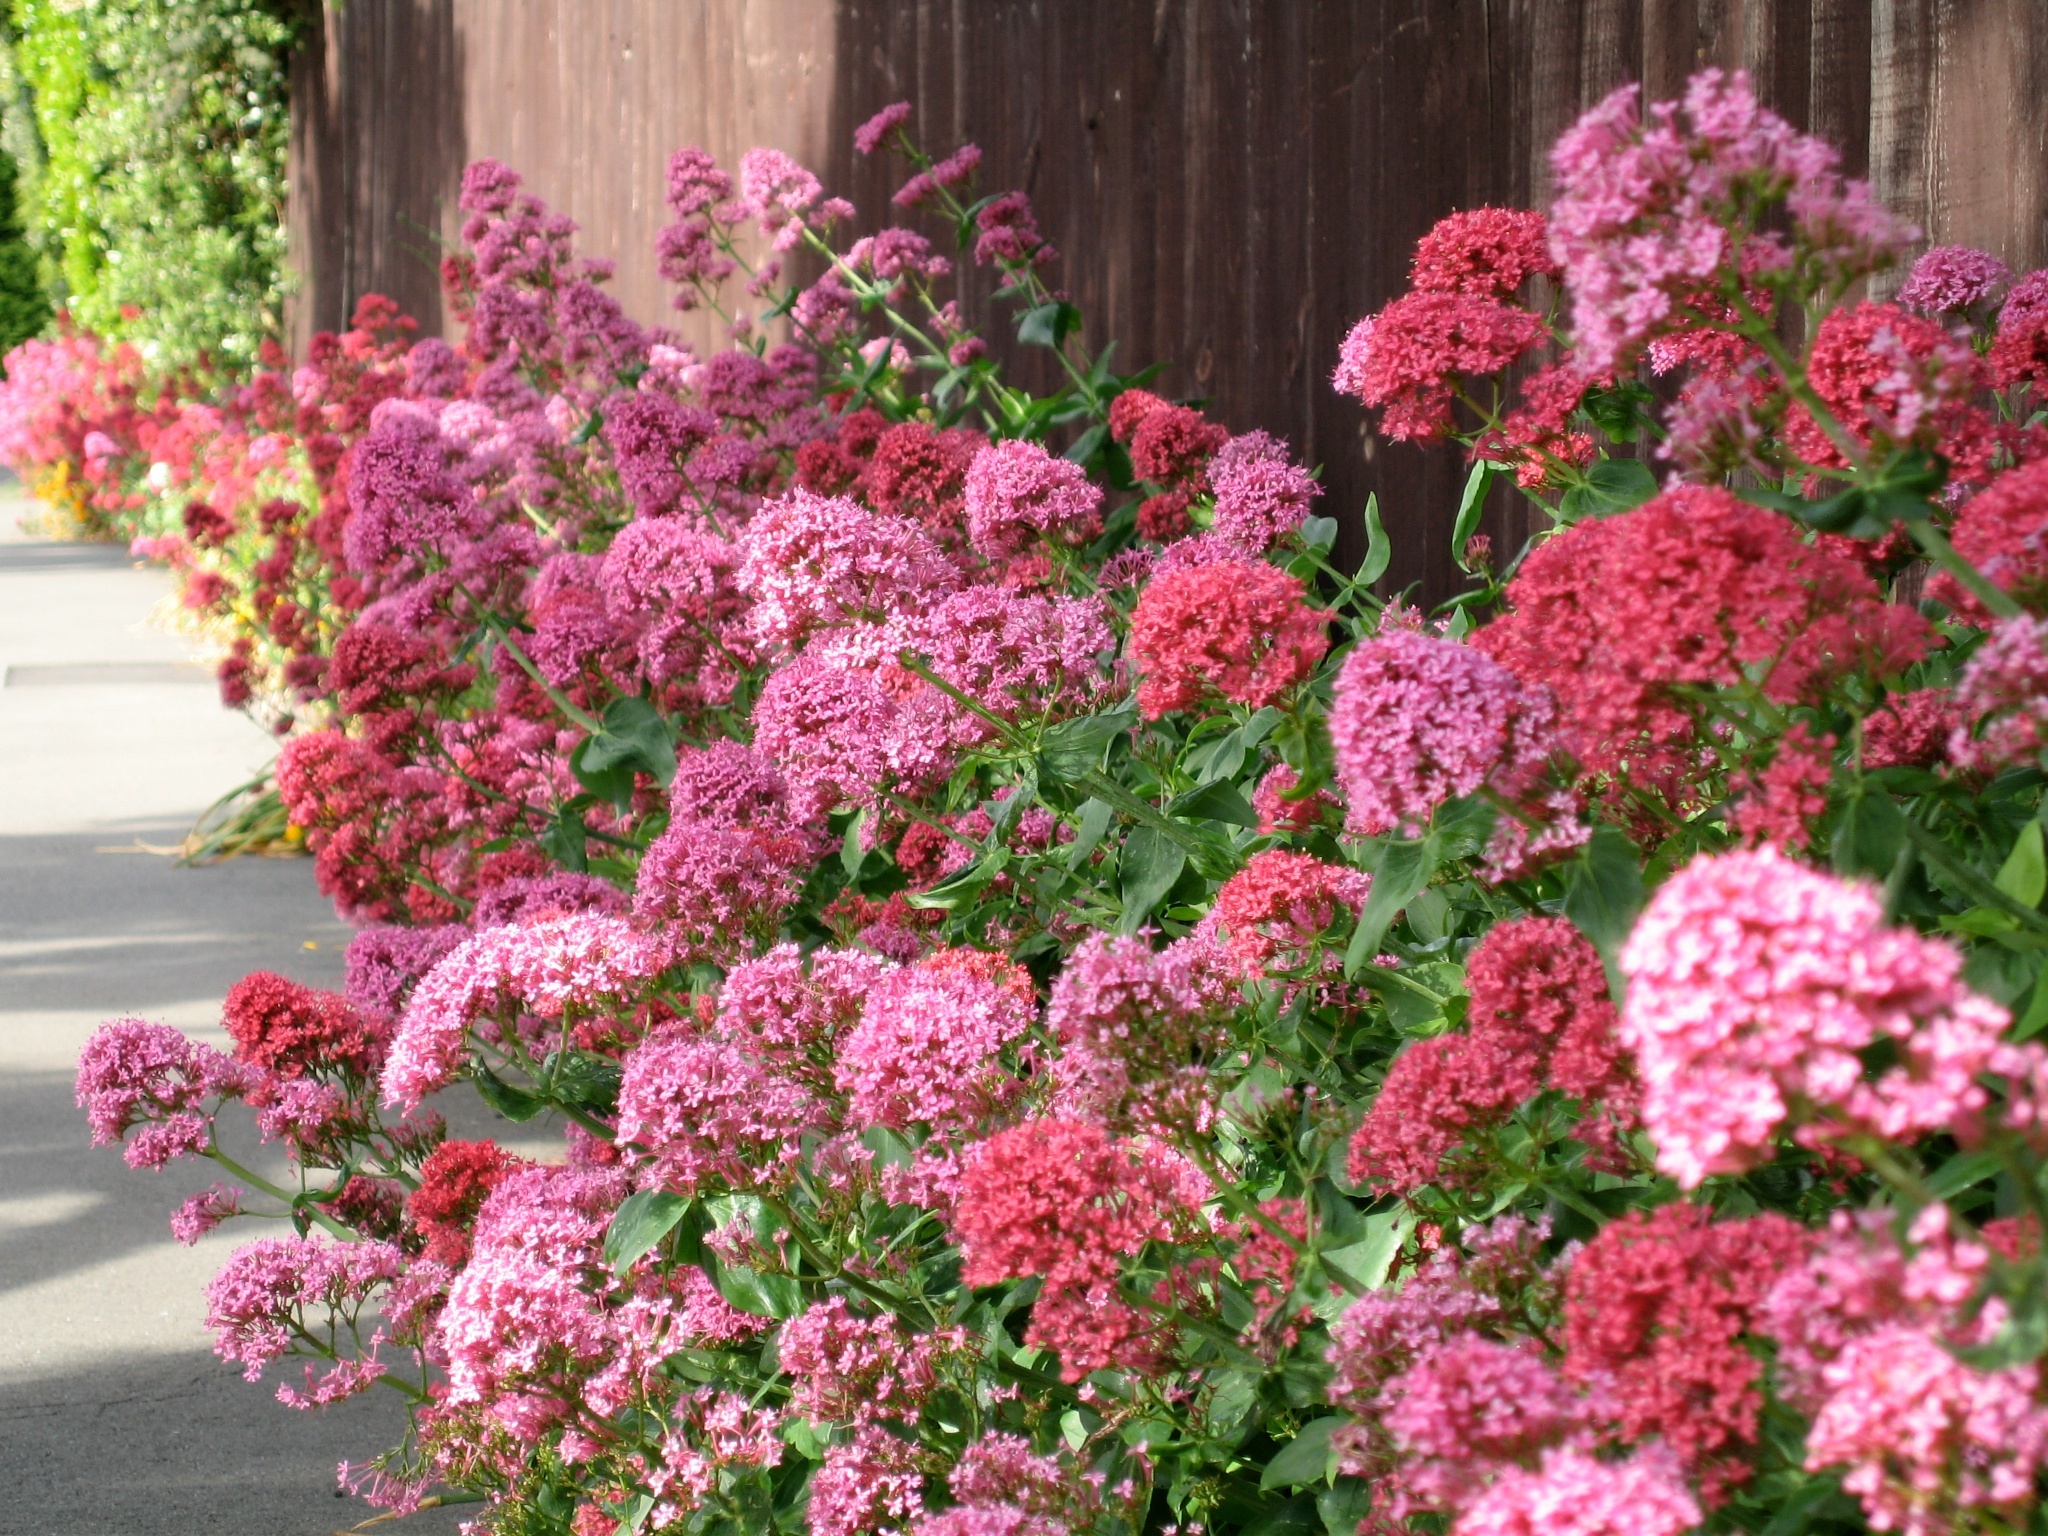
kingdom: Plantae
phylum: Tracheophyta
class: Magnoliopsida
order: Dipsacales
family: Caprifoliaceae
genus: Centranthus
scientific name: Centranthus ruber
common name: Red valerian
